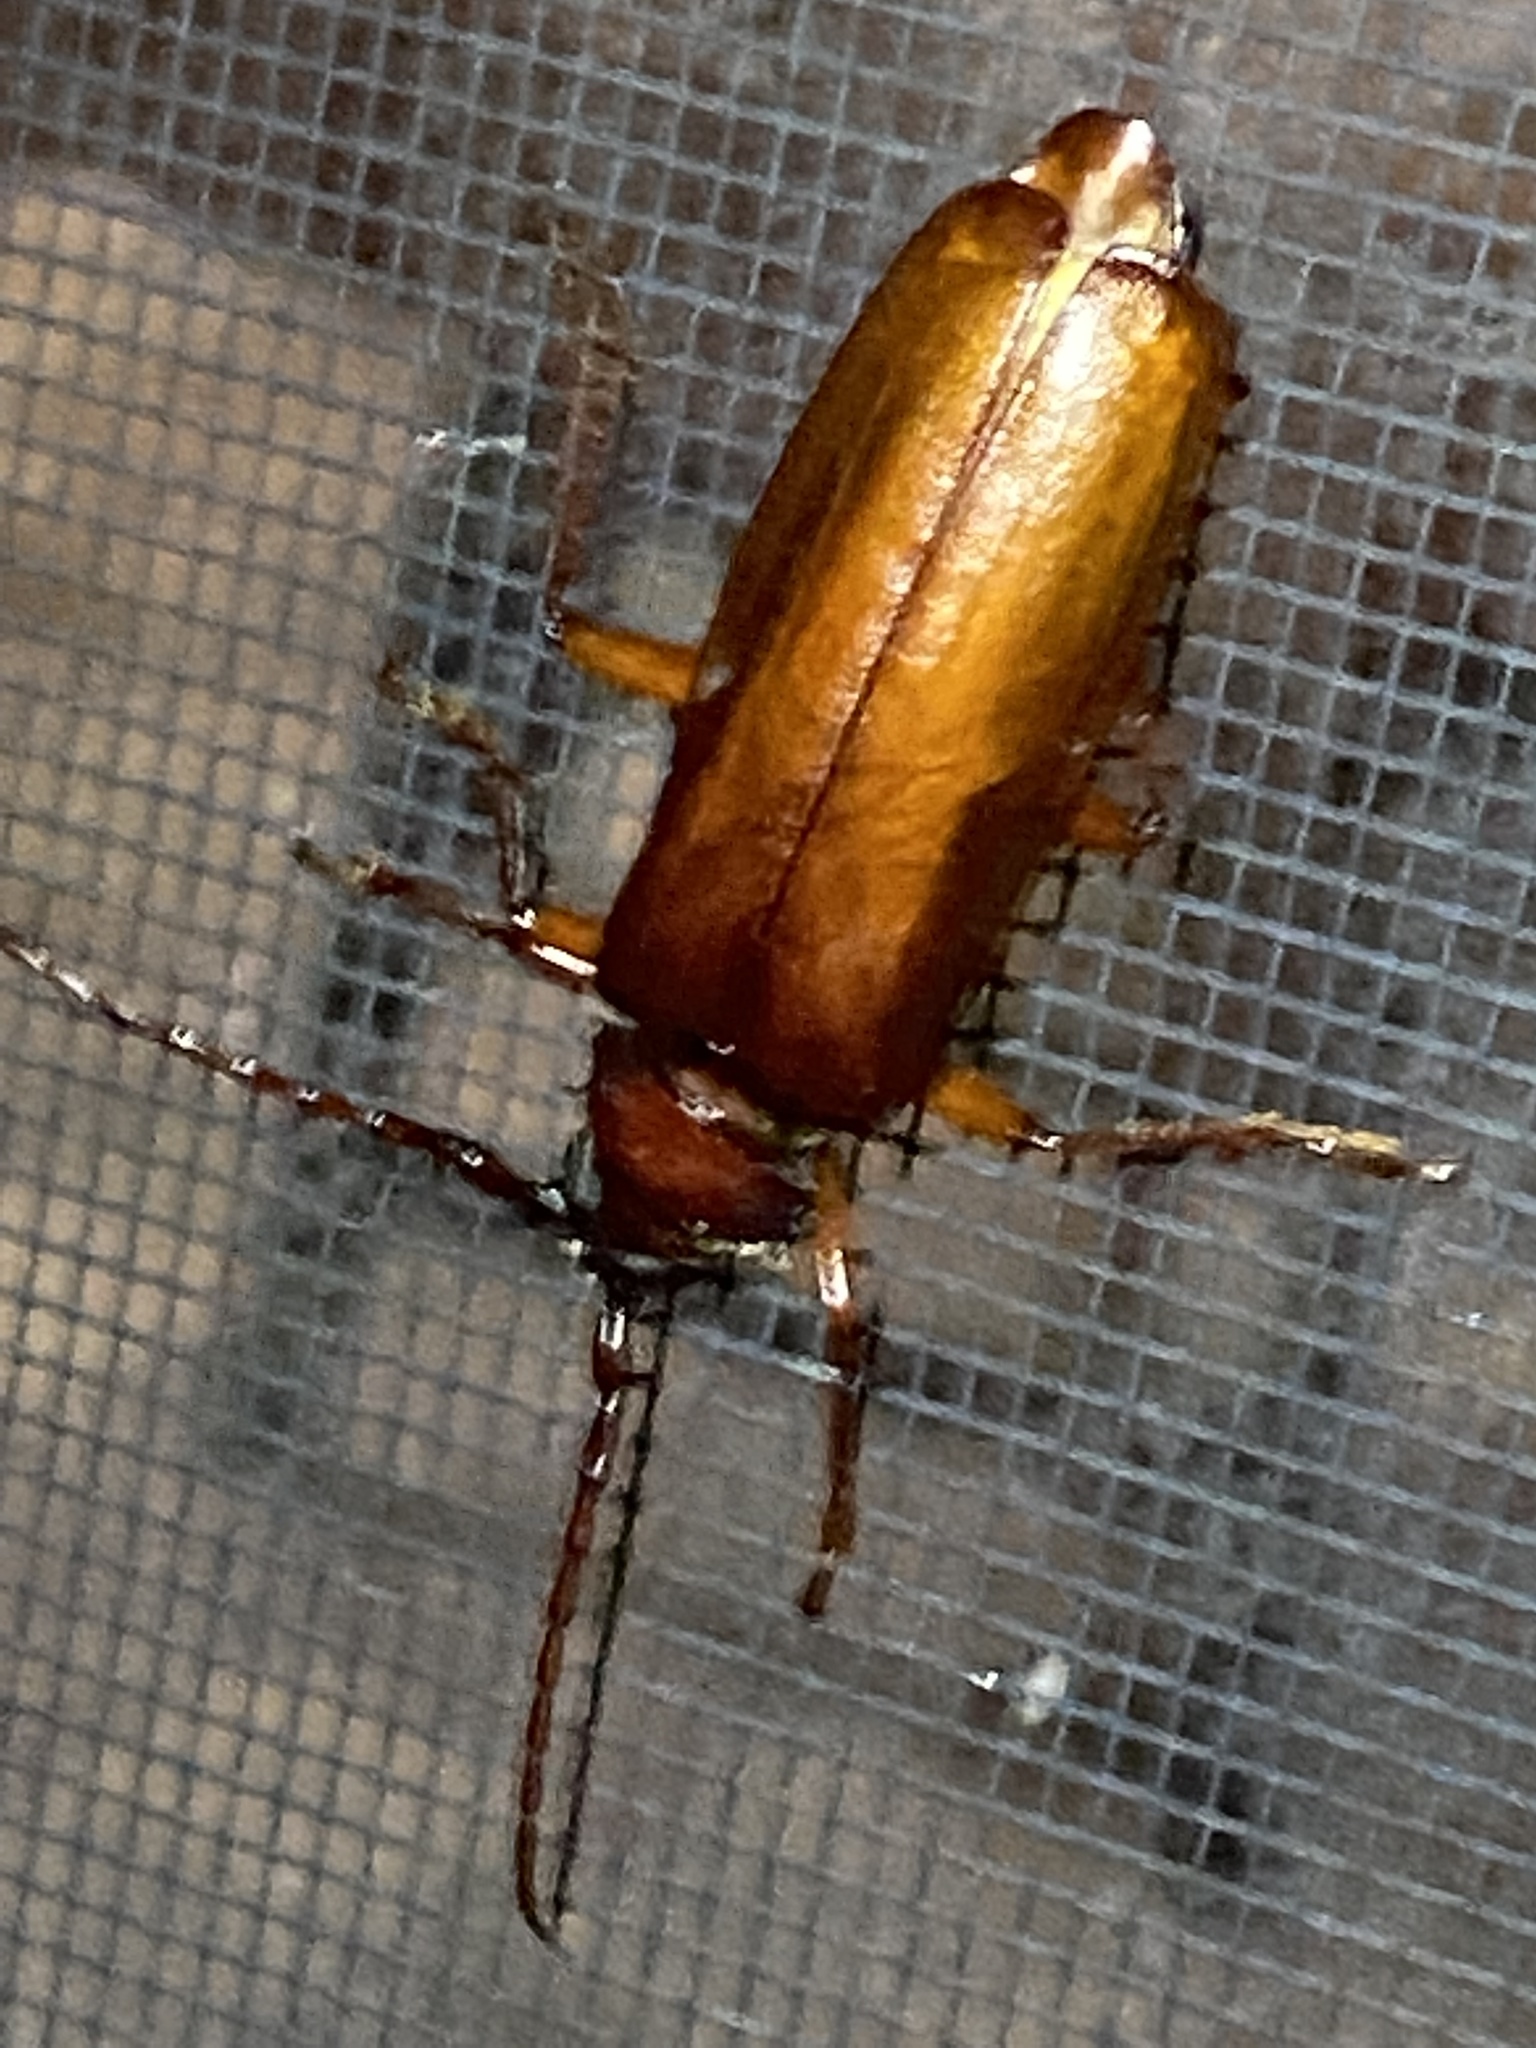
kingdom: Animalia
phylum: Arthropoda
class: Insecta
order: Coleoptera
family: Cerambycidae
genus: Orthosoma
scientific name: Orthosoma brunneum
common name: Brown prionid beetle
